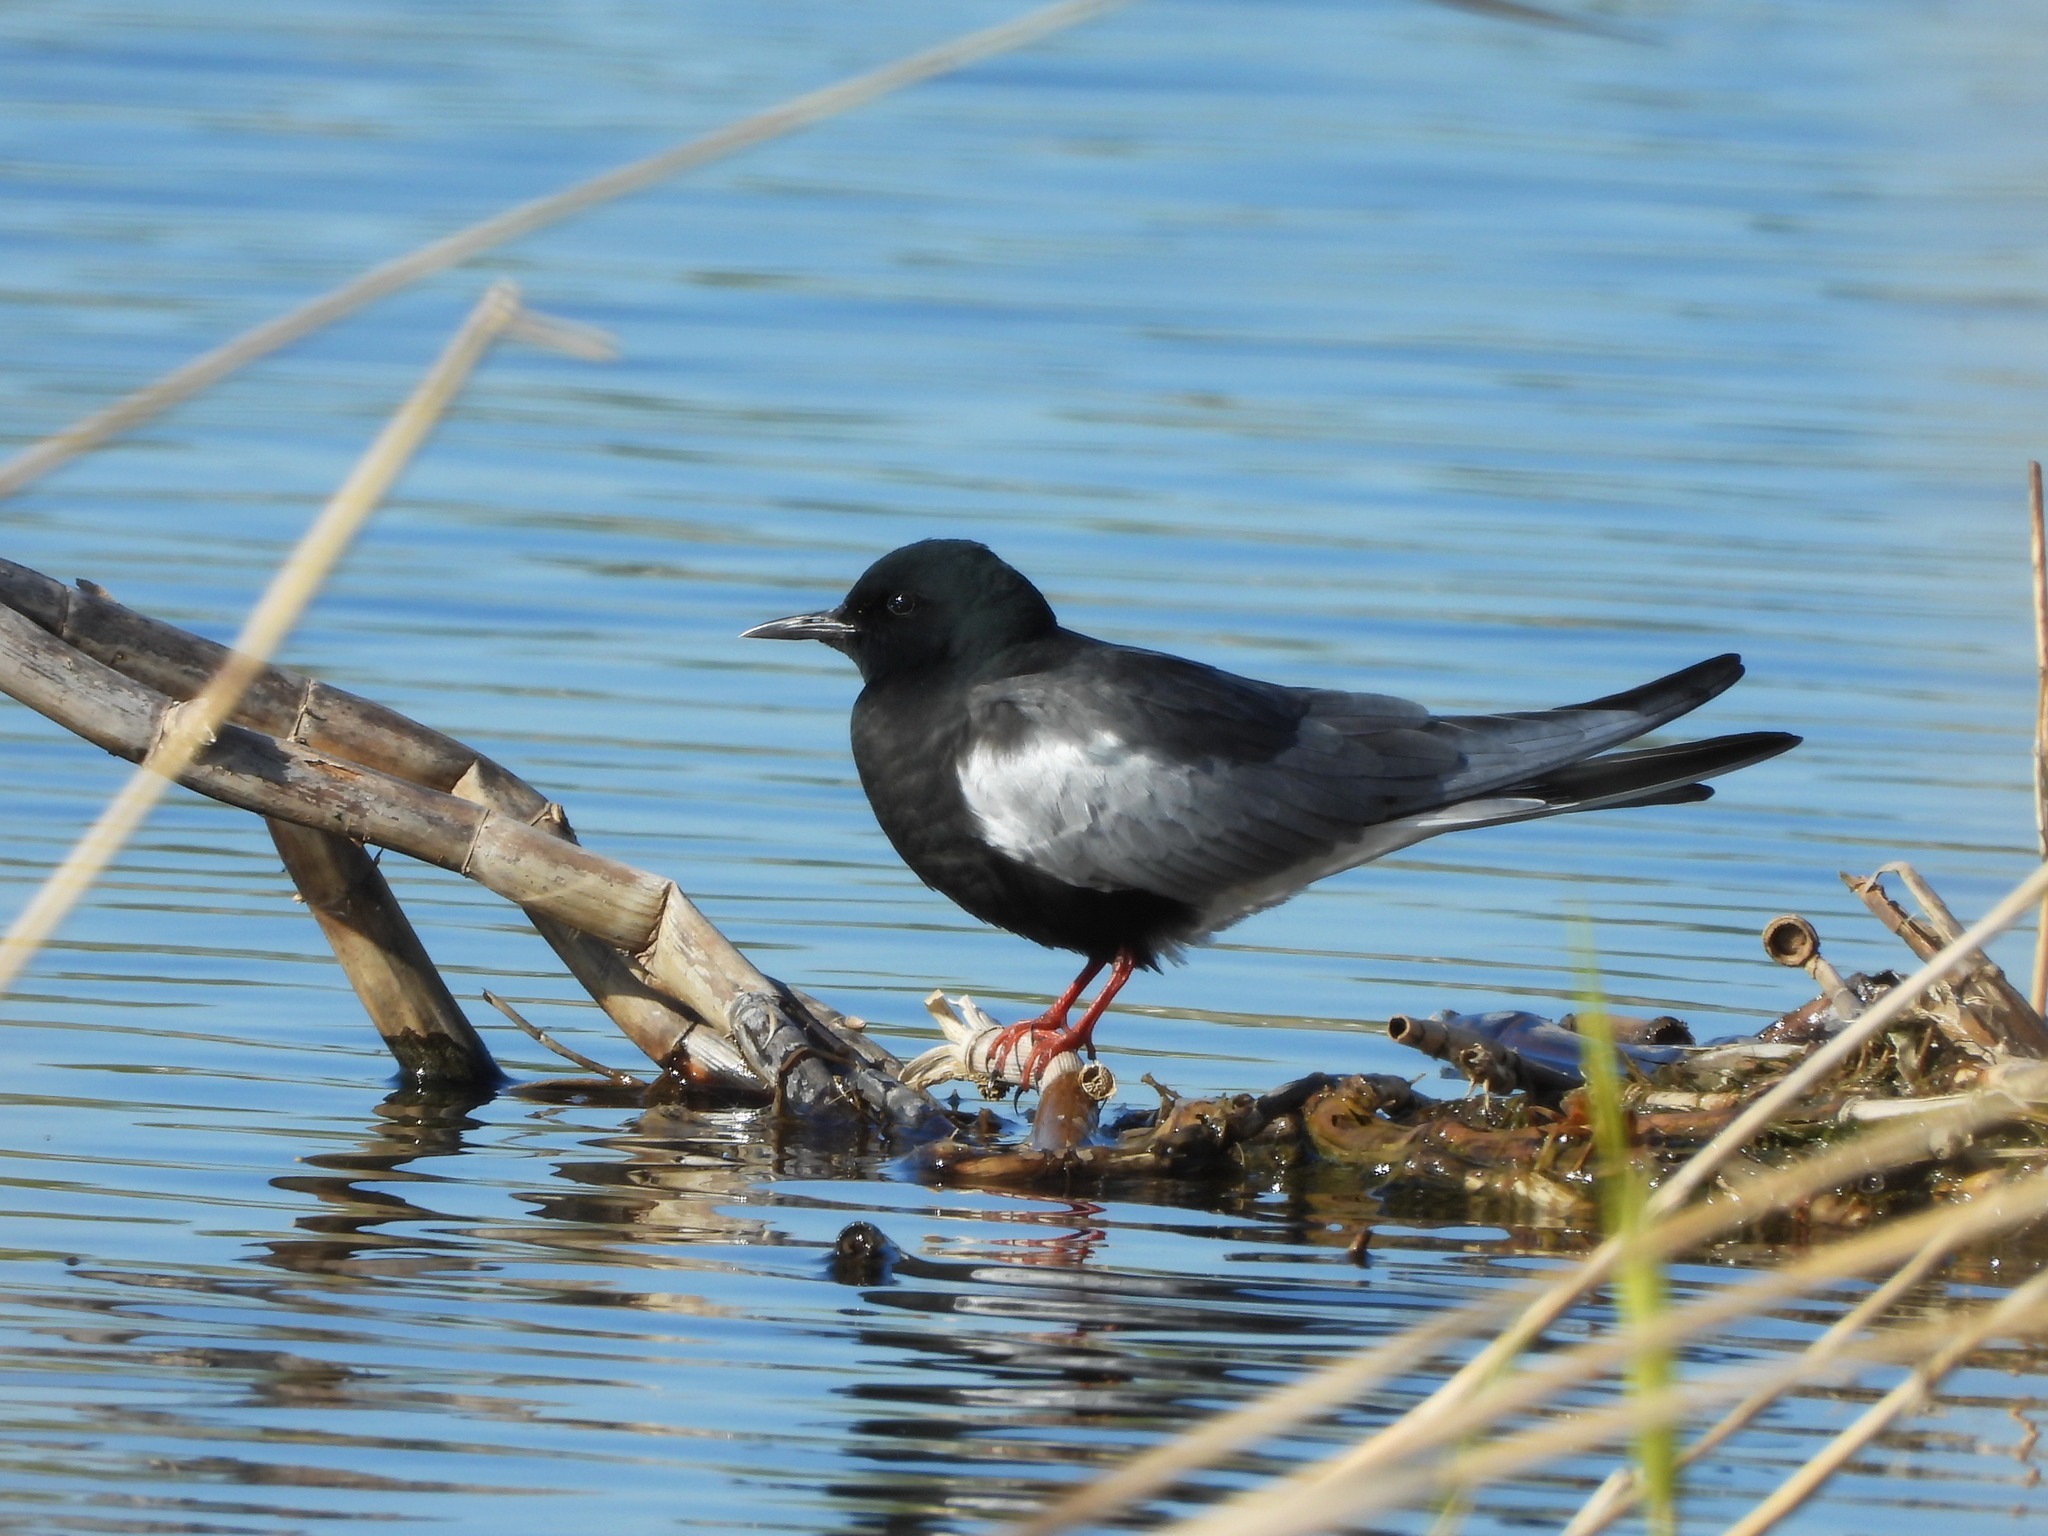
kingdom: Animalia
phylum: Chordata
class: Aves
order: Charadriiformes
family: Laridae
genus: Chlidonias
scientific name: Chlidonias leucopterus
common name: White-winged tern
